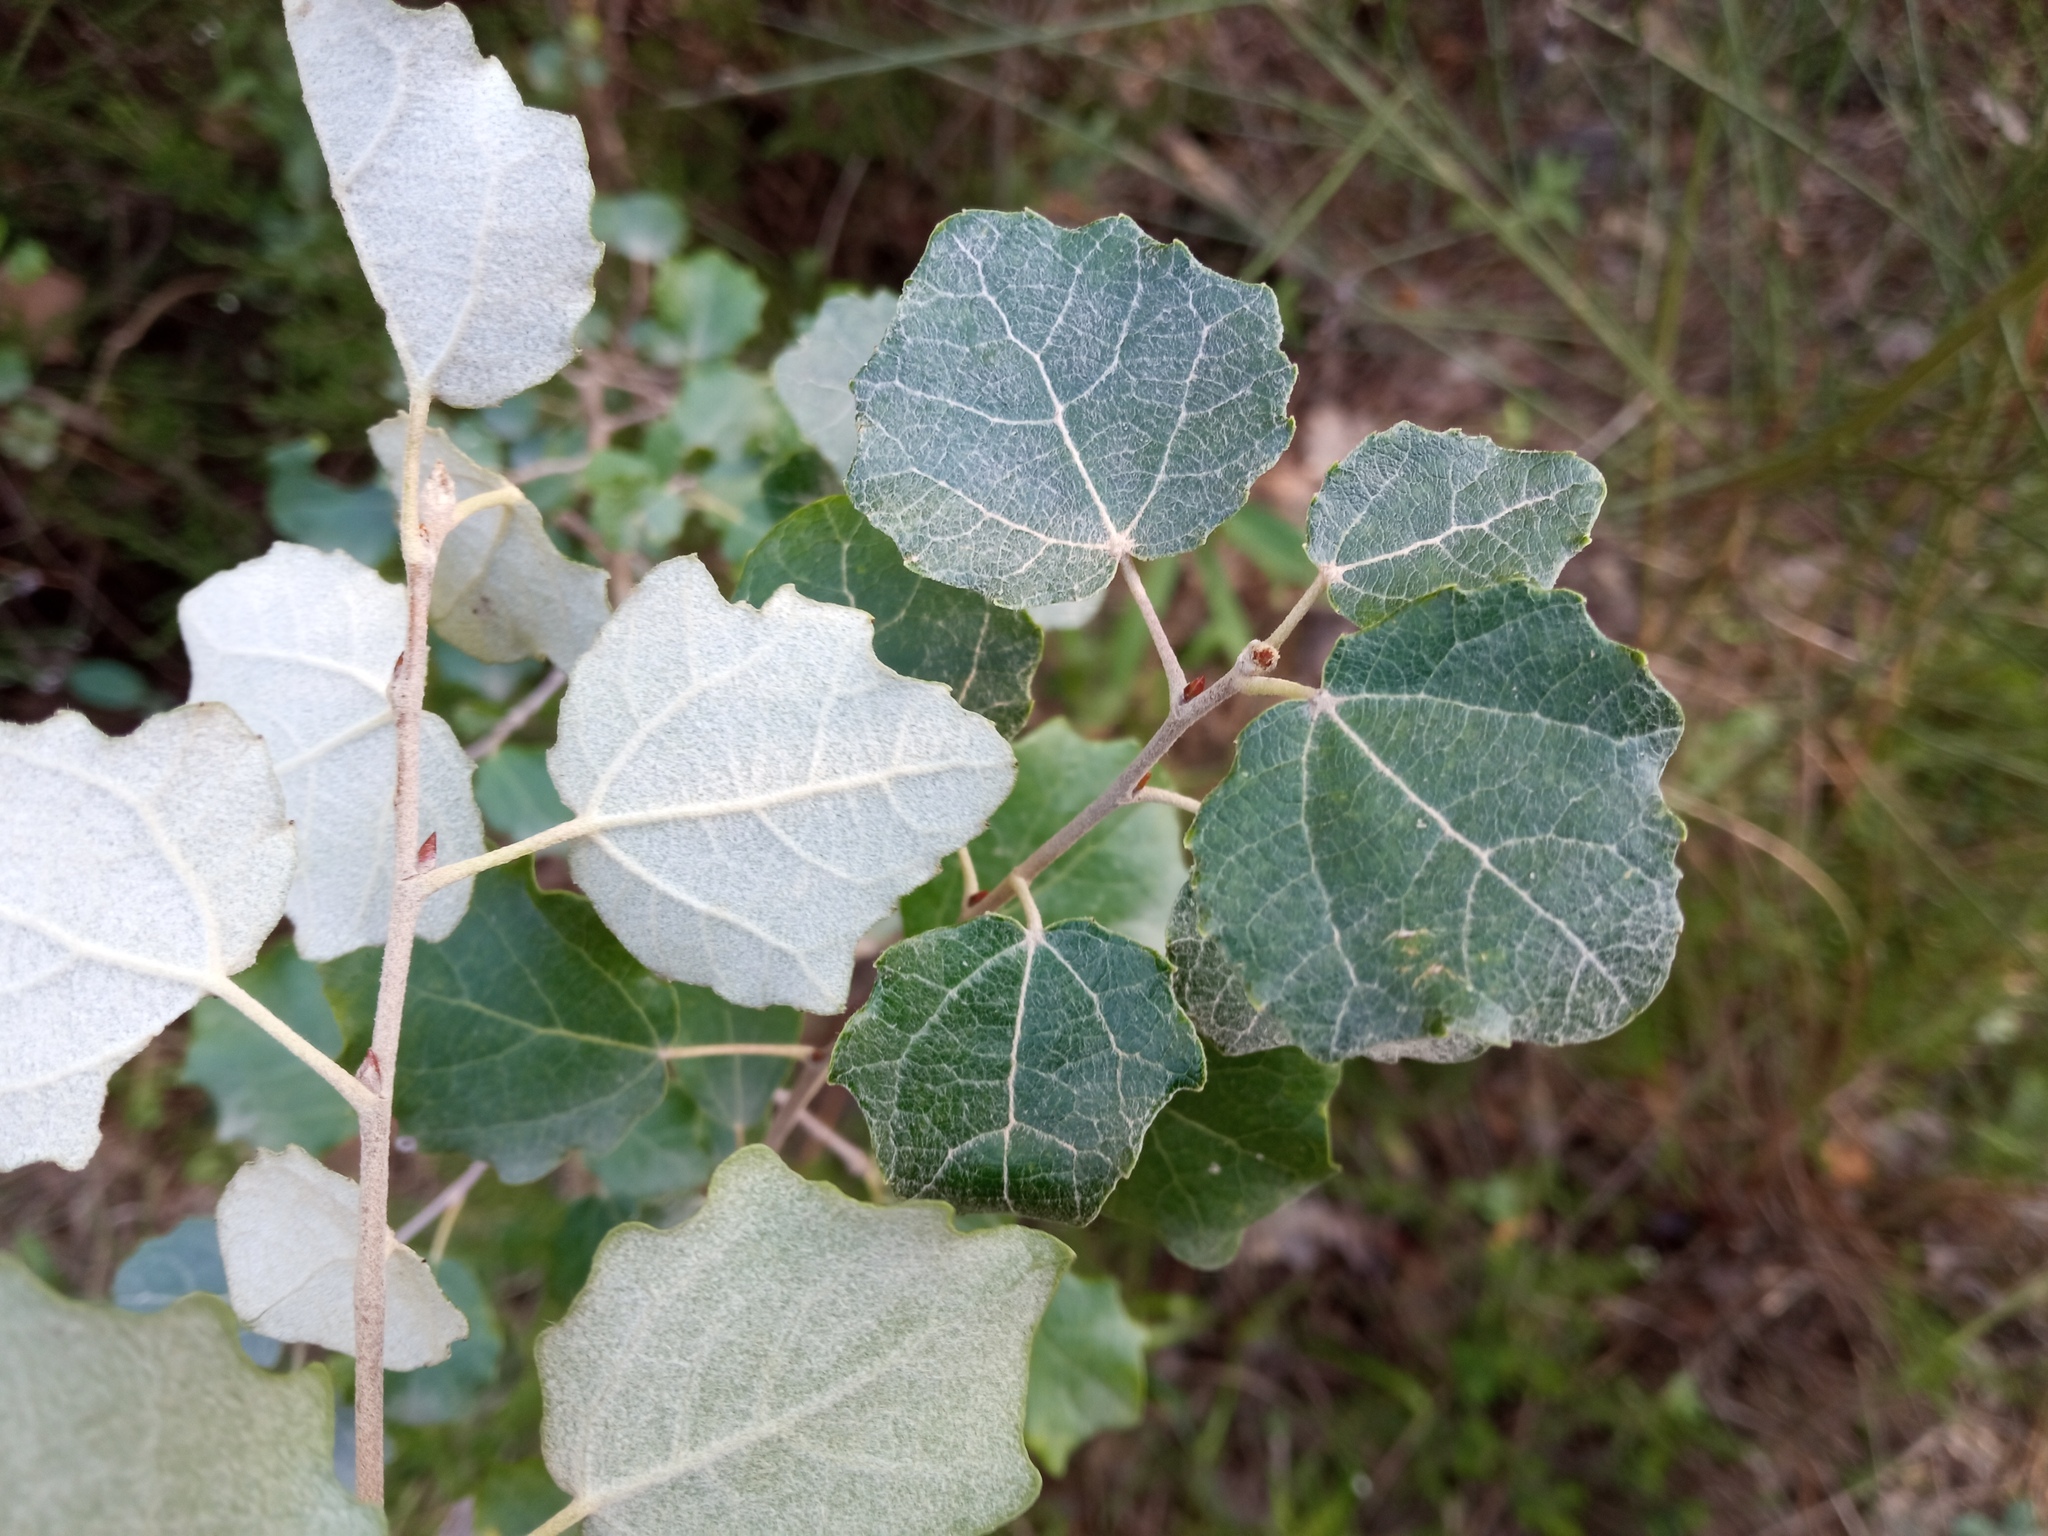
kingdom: Plantae
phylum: Tracheophyta
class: Magnoliopsida
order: Malpighiales
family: Salicaceae
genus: Populus
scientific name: Populus alba
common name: White poplar
